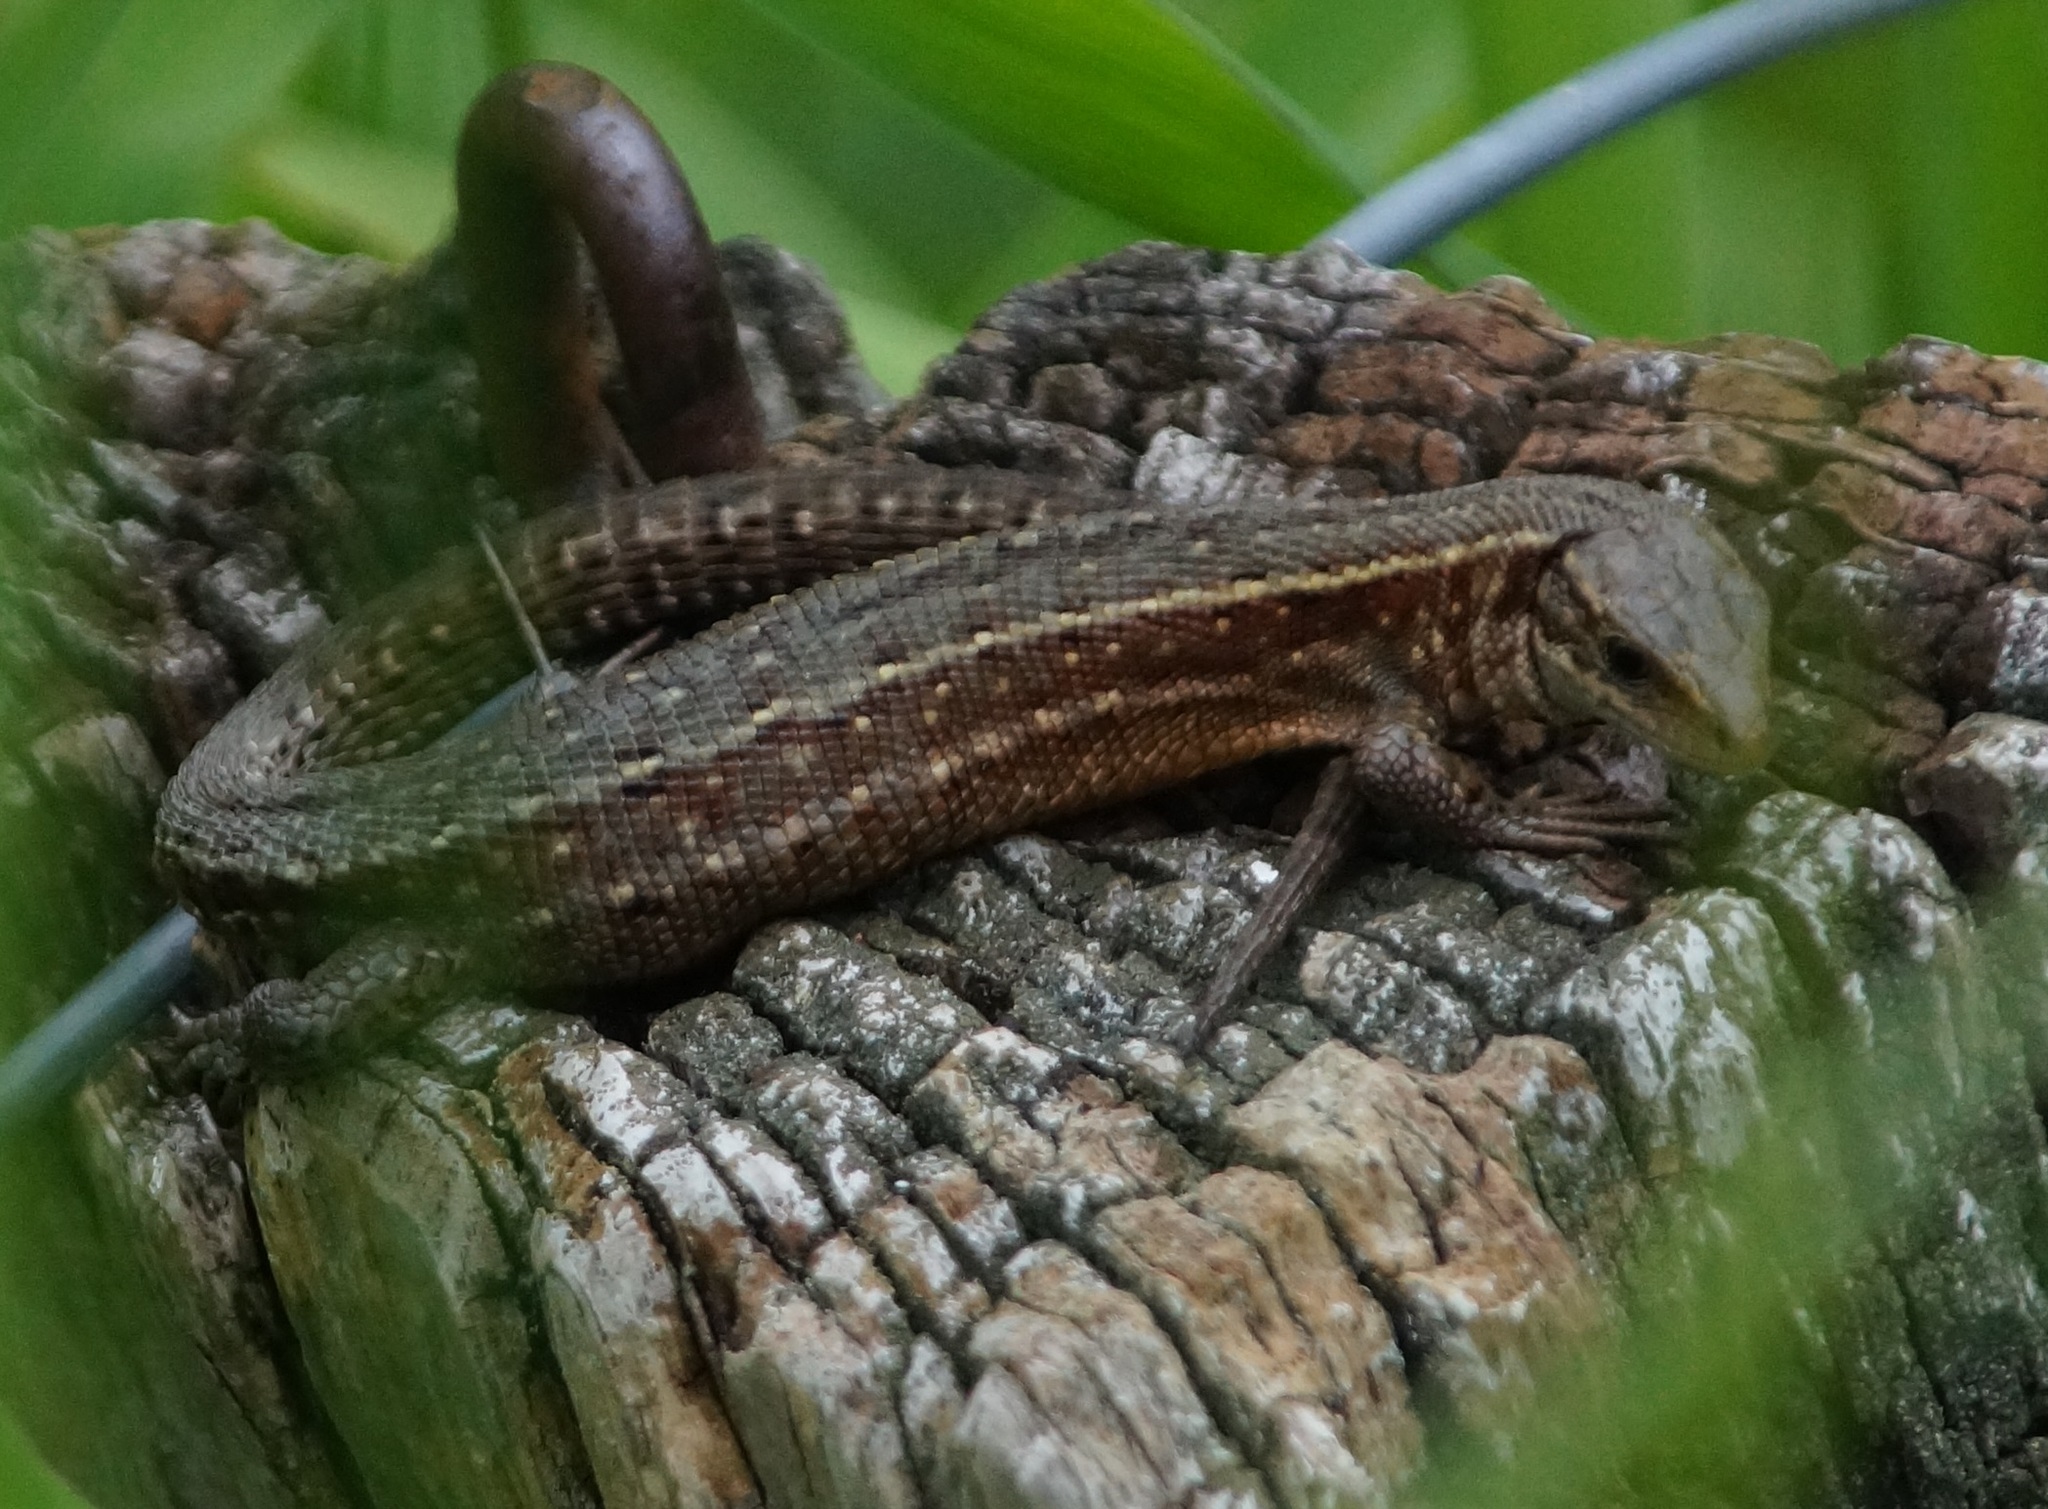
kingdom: Animalia
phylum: Chordata
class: Squamata
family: Lacertidae
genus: Zootoca
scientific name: Zootoca vivipara
